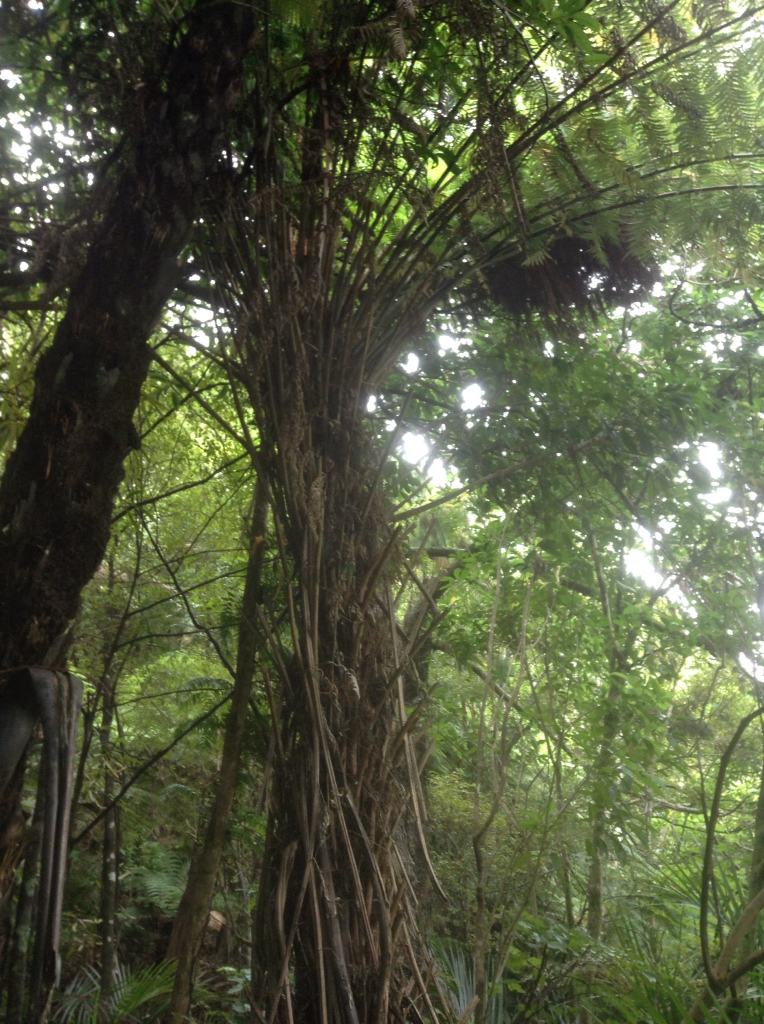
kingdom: Plantae
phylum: Tracheophyta
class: Polypodiopsida
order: Cyatheales
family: Cyatheaceae
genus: Alsophila
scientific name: Alsophila dealbata
